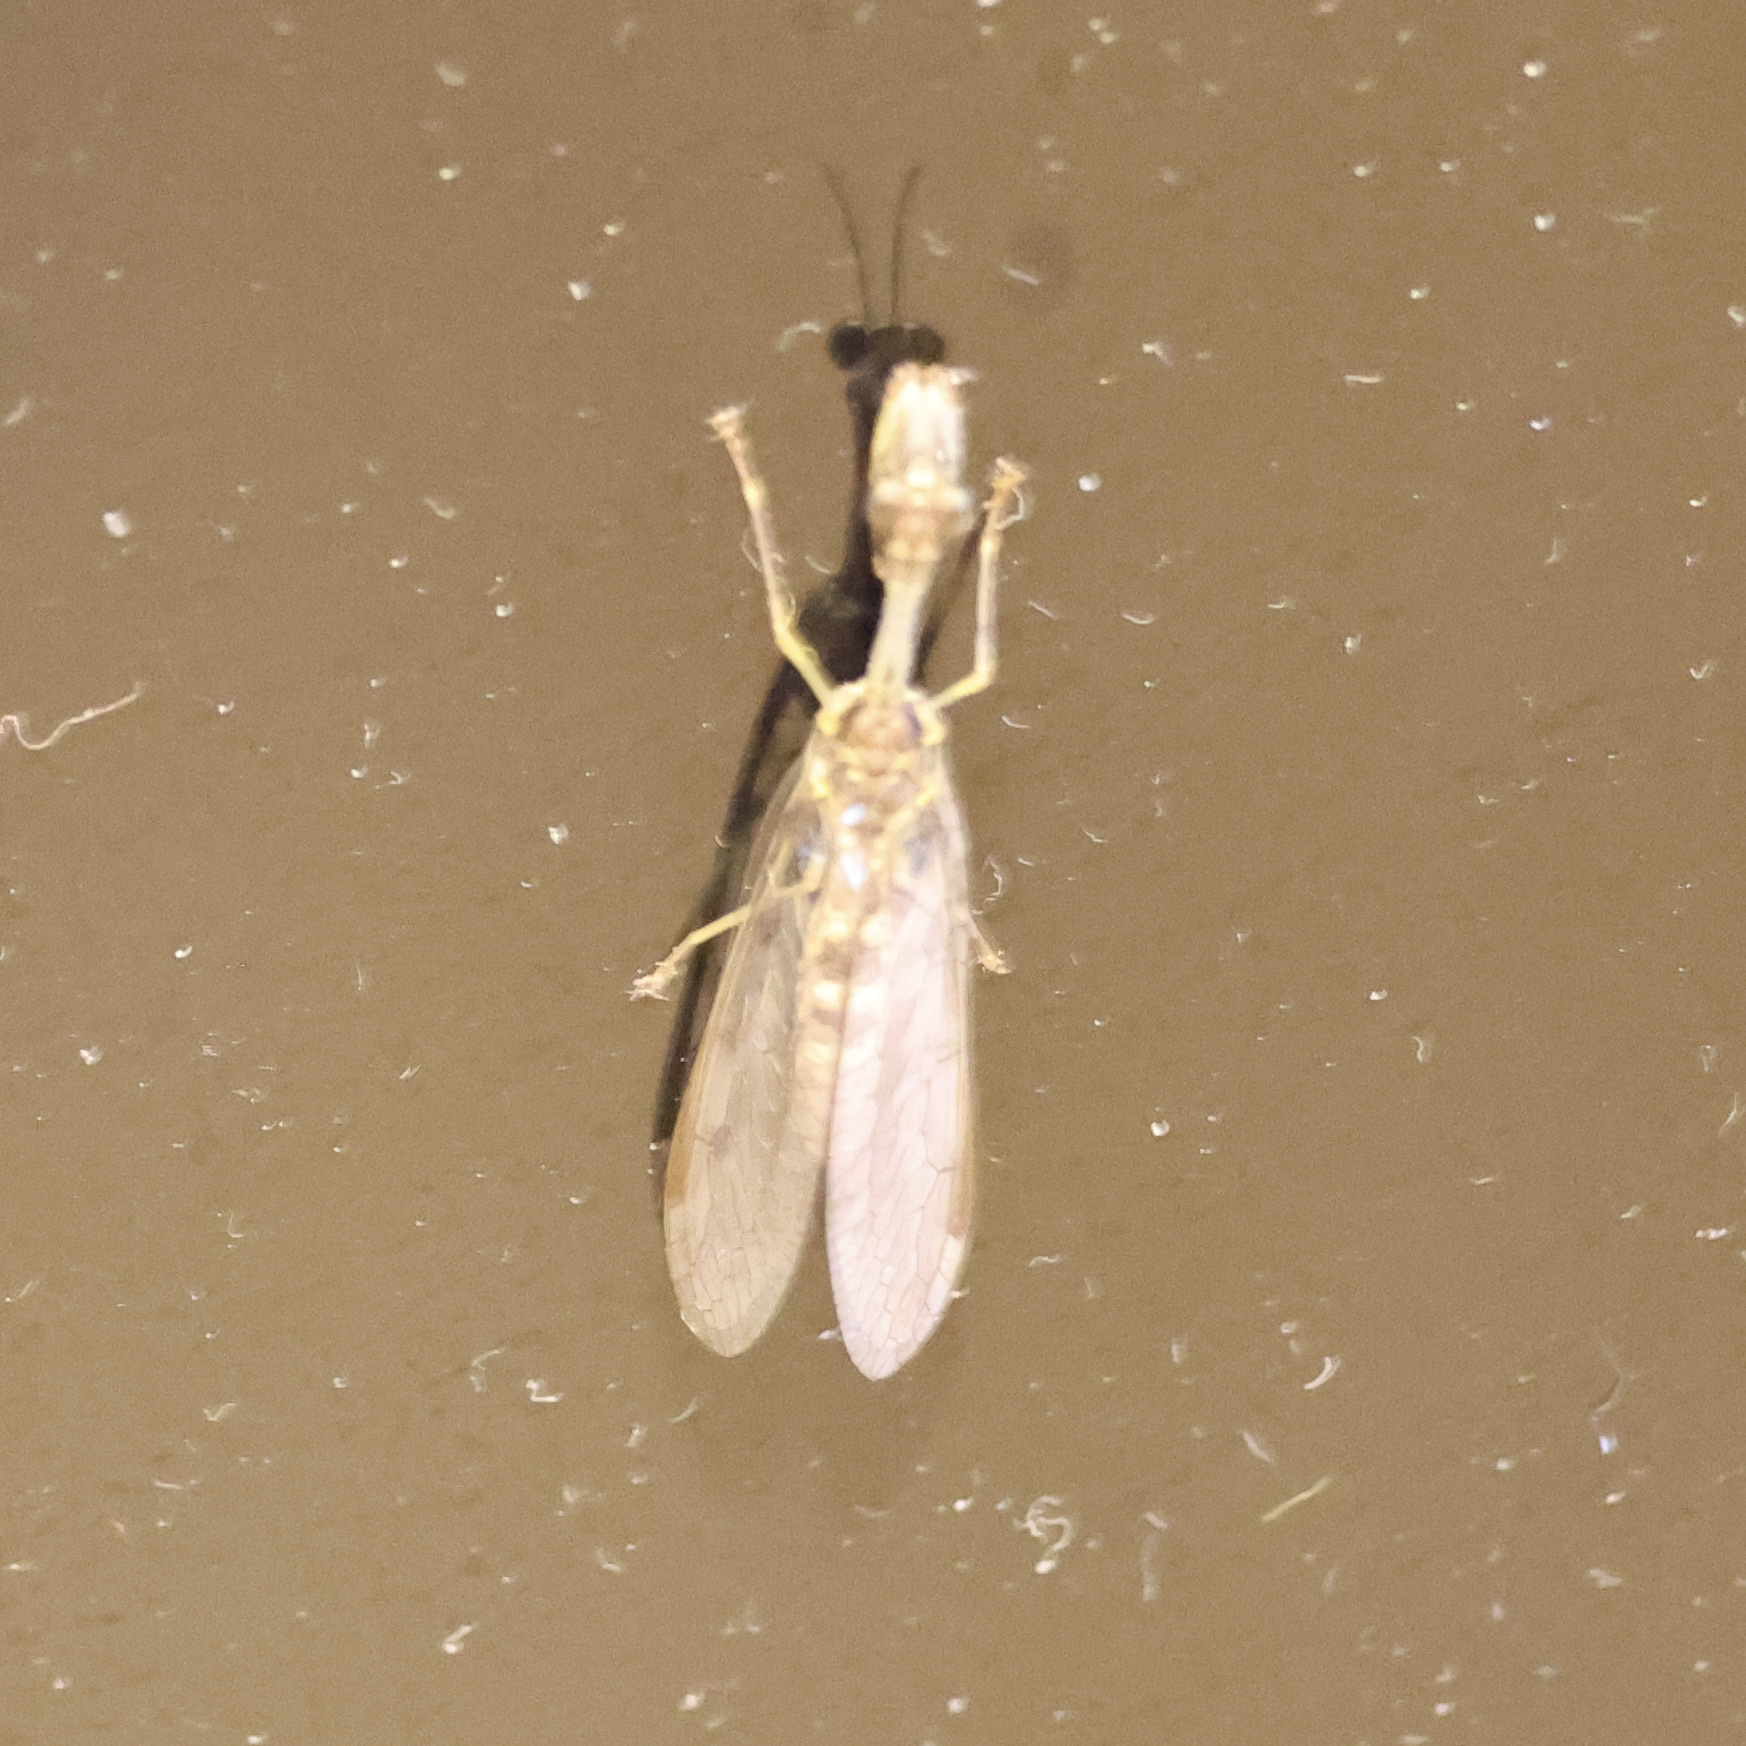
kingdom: Animalia
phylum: Arthropoda
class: Insecta
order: Neuroptera
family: Mantispidae
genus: Dicromantispa
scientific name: Dicromantispa sayi
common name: Say's mantidfly
